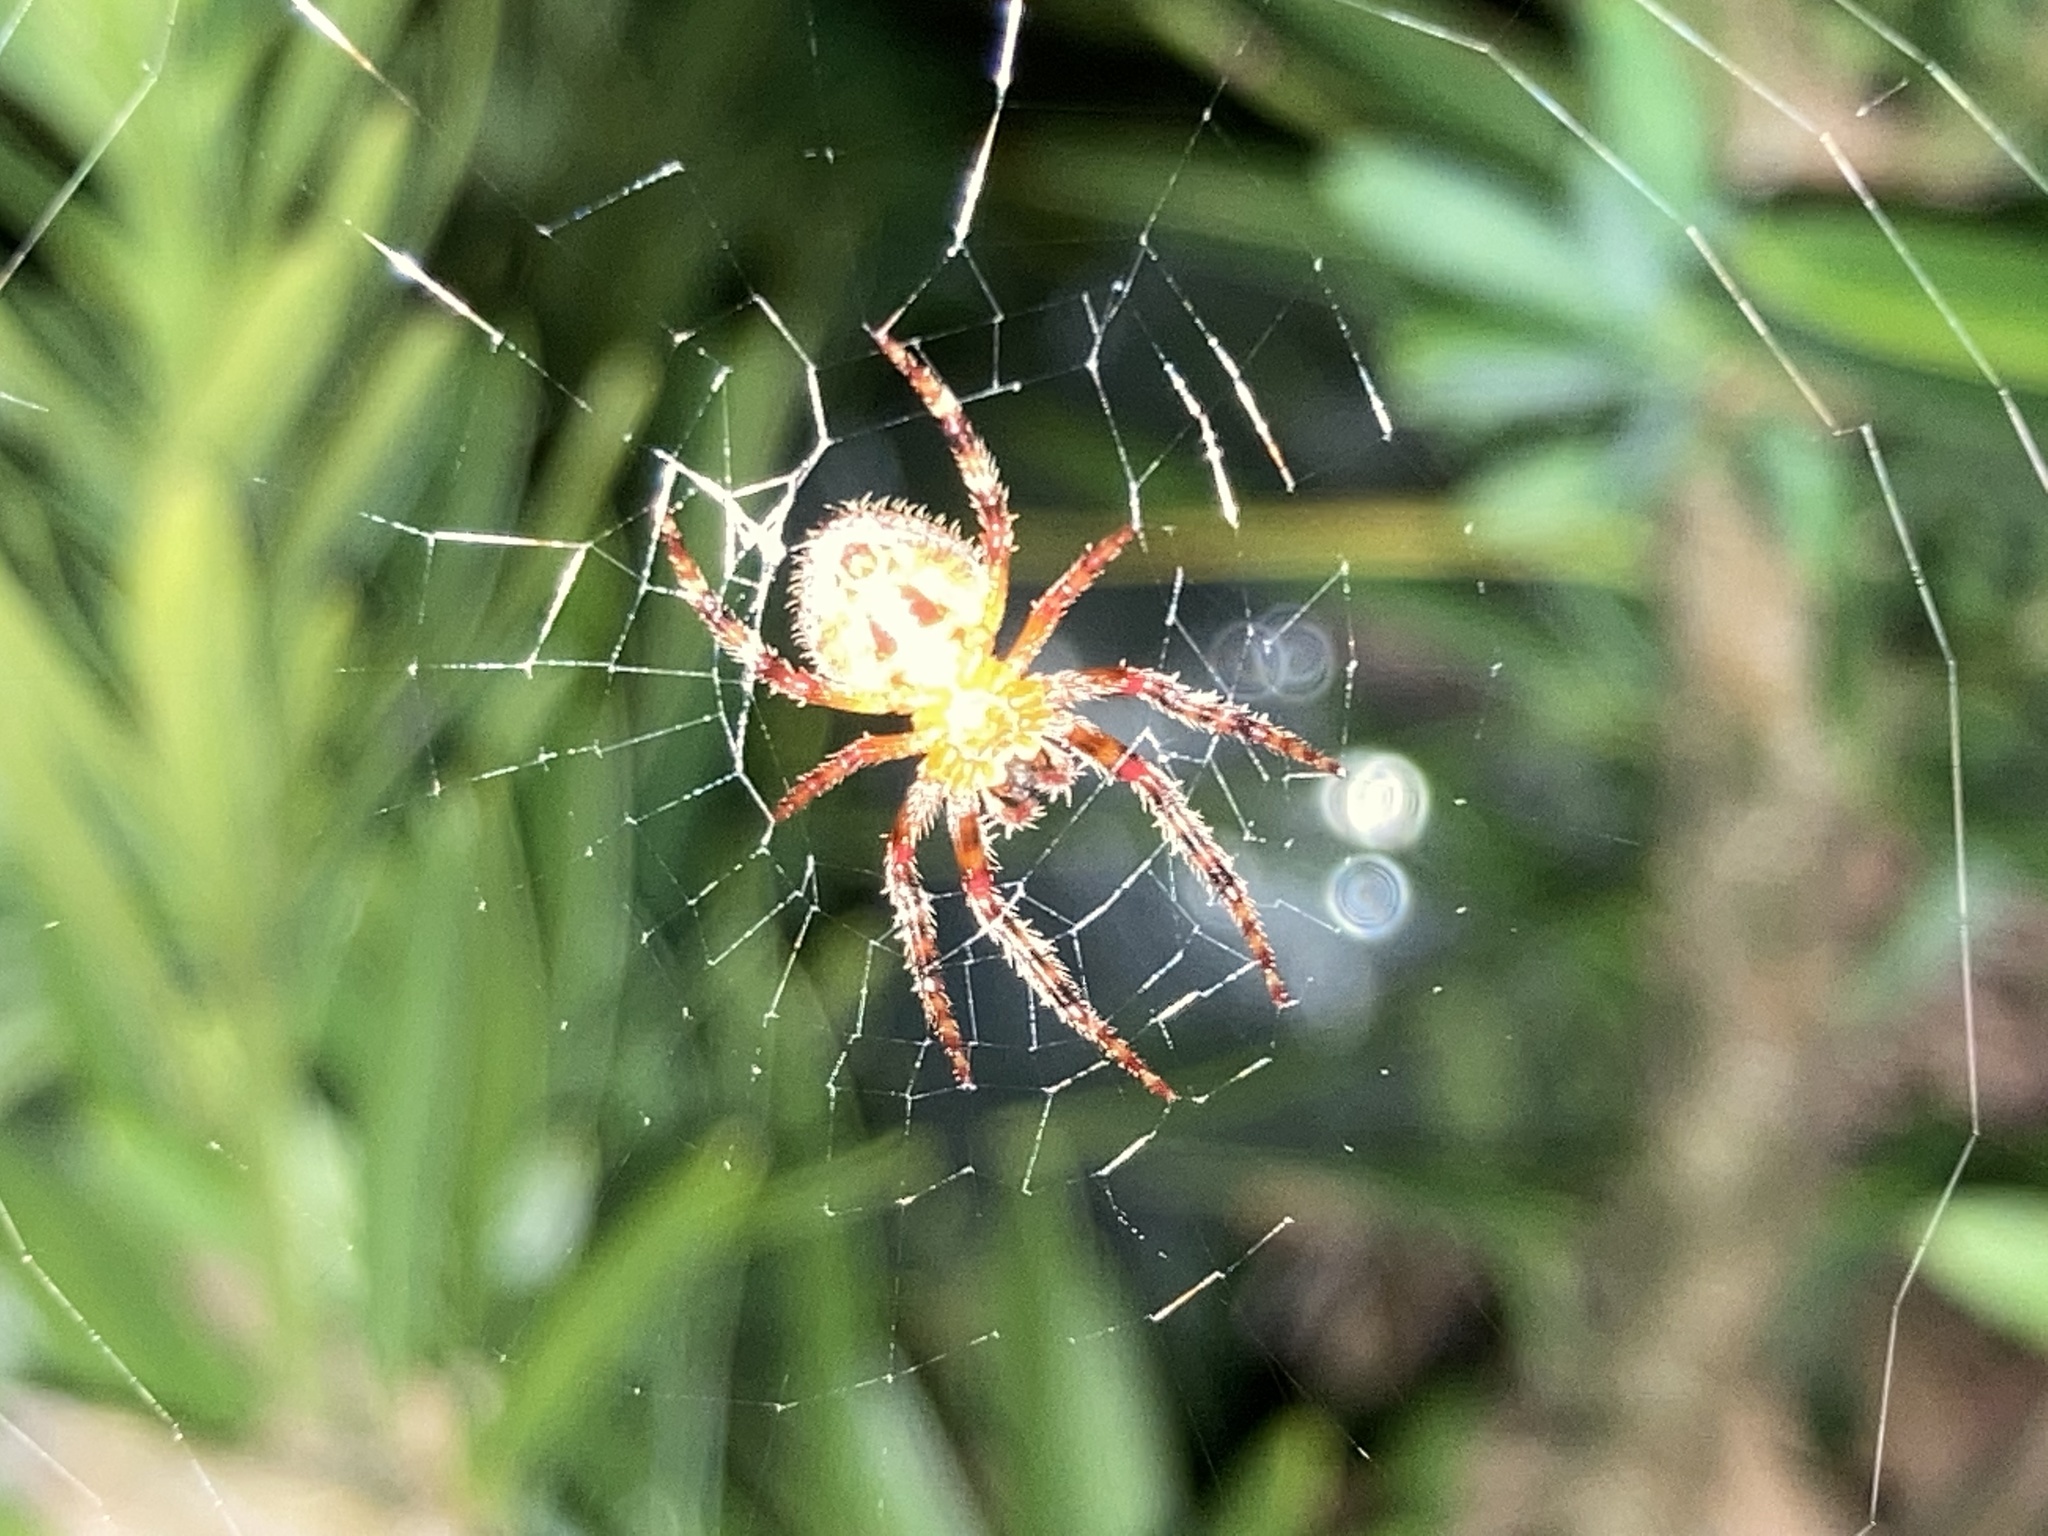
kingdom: Animalia
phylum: Arthropoda
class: Arachnida
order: Araneae
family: Araneidae
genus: Eriophora
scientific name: Eriophora ravilla
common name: Orb weavers
